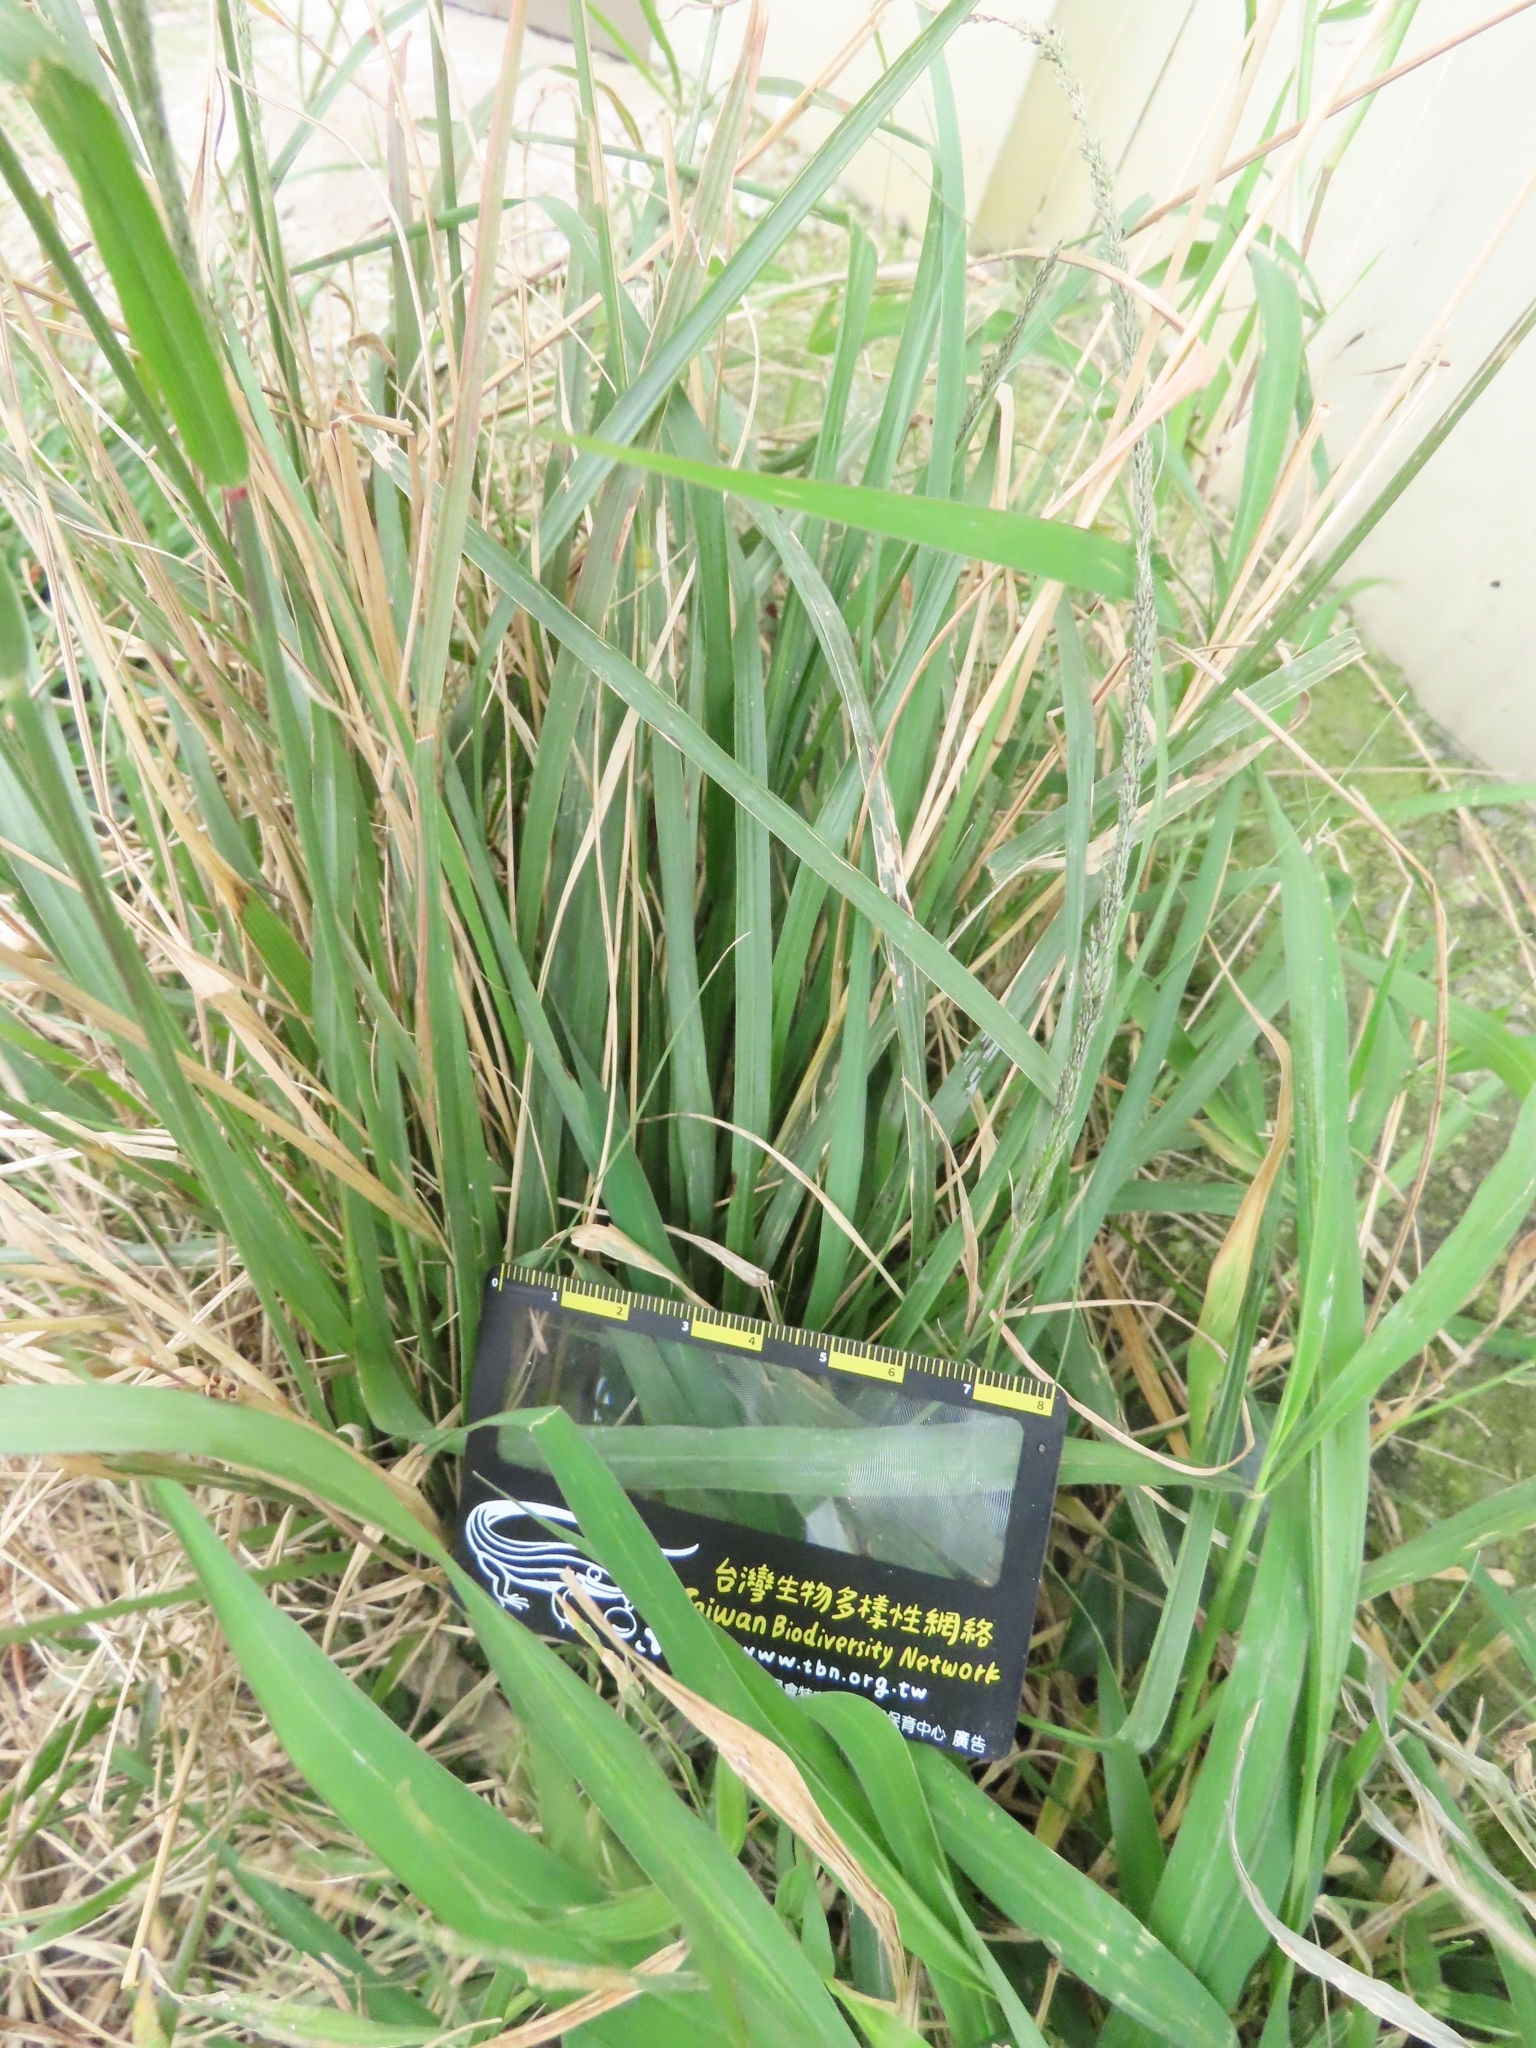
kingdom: Plantae
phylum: Tracheophyta
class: Liliopsida
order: Poales
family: Poaceae
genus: Sporobolus
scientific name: Sporobolus indicus
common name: Smut grass
